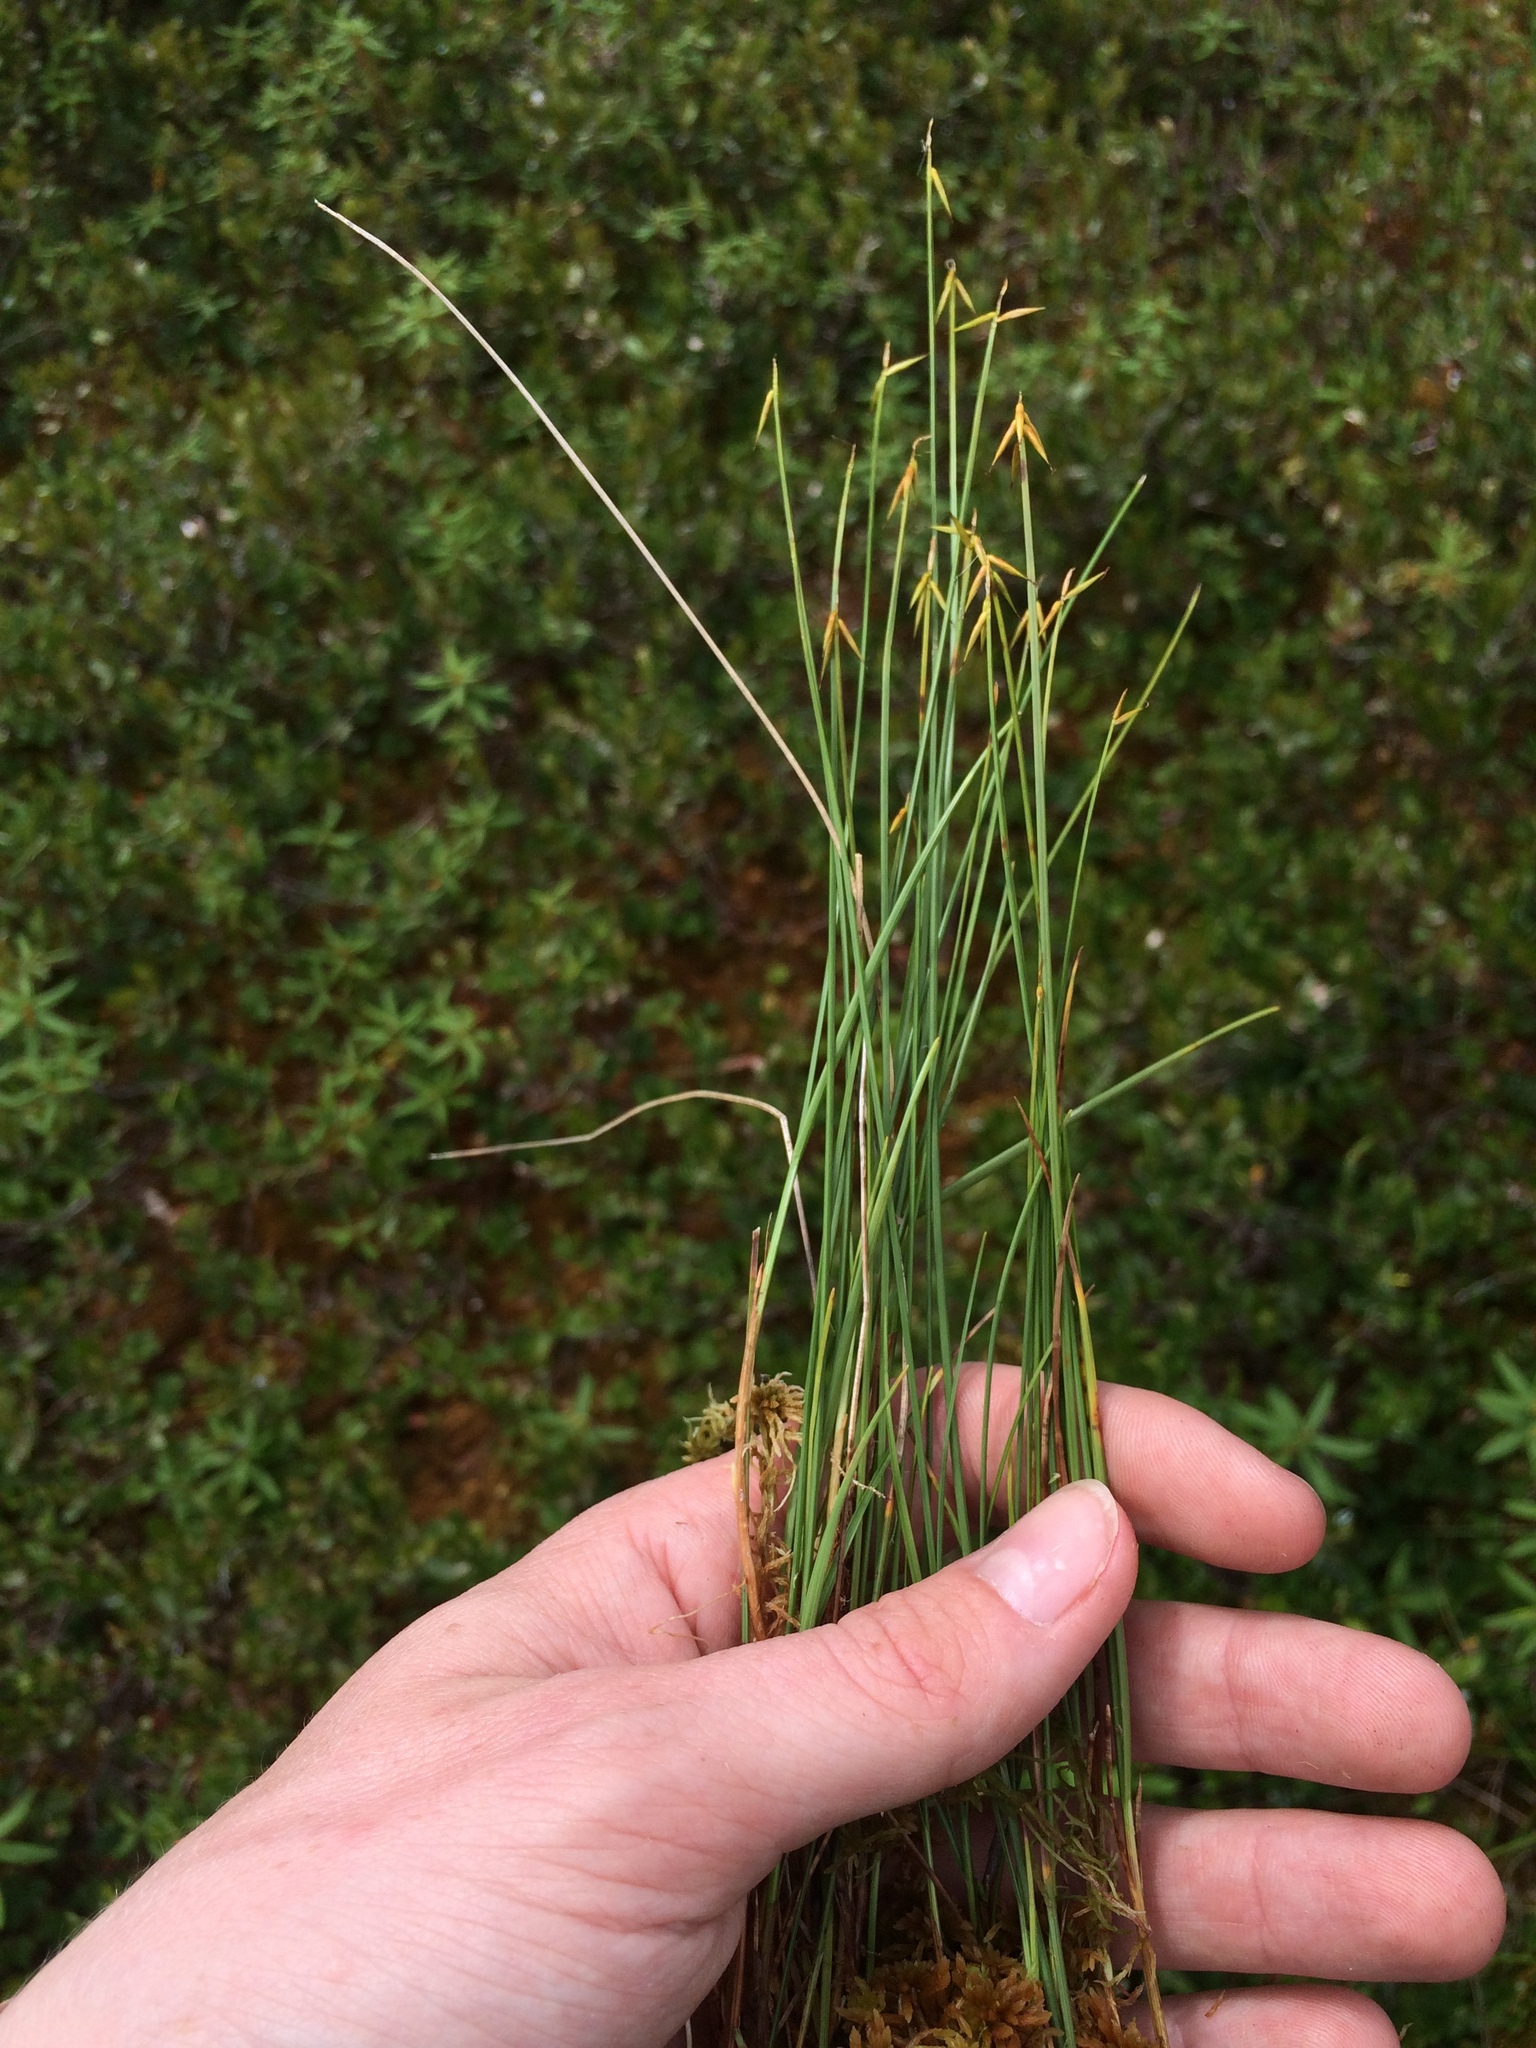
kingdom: Plantae
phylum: Tracheophyta
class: Liliopsida
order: Poales
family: Cyperaceae
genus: Carex
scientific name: Carex pauciflora
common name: Few-flowered sedge
